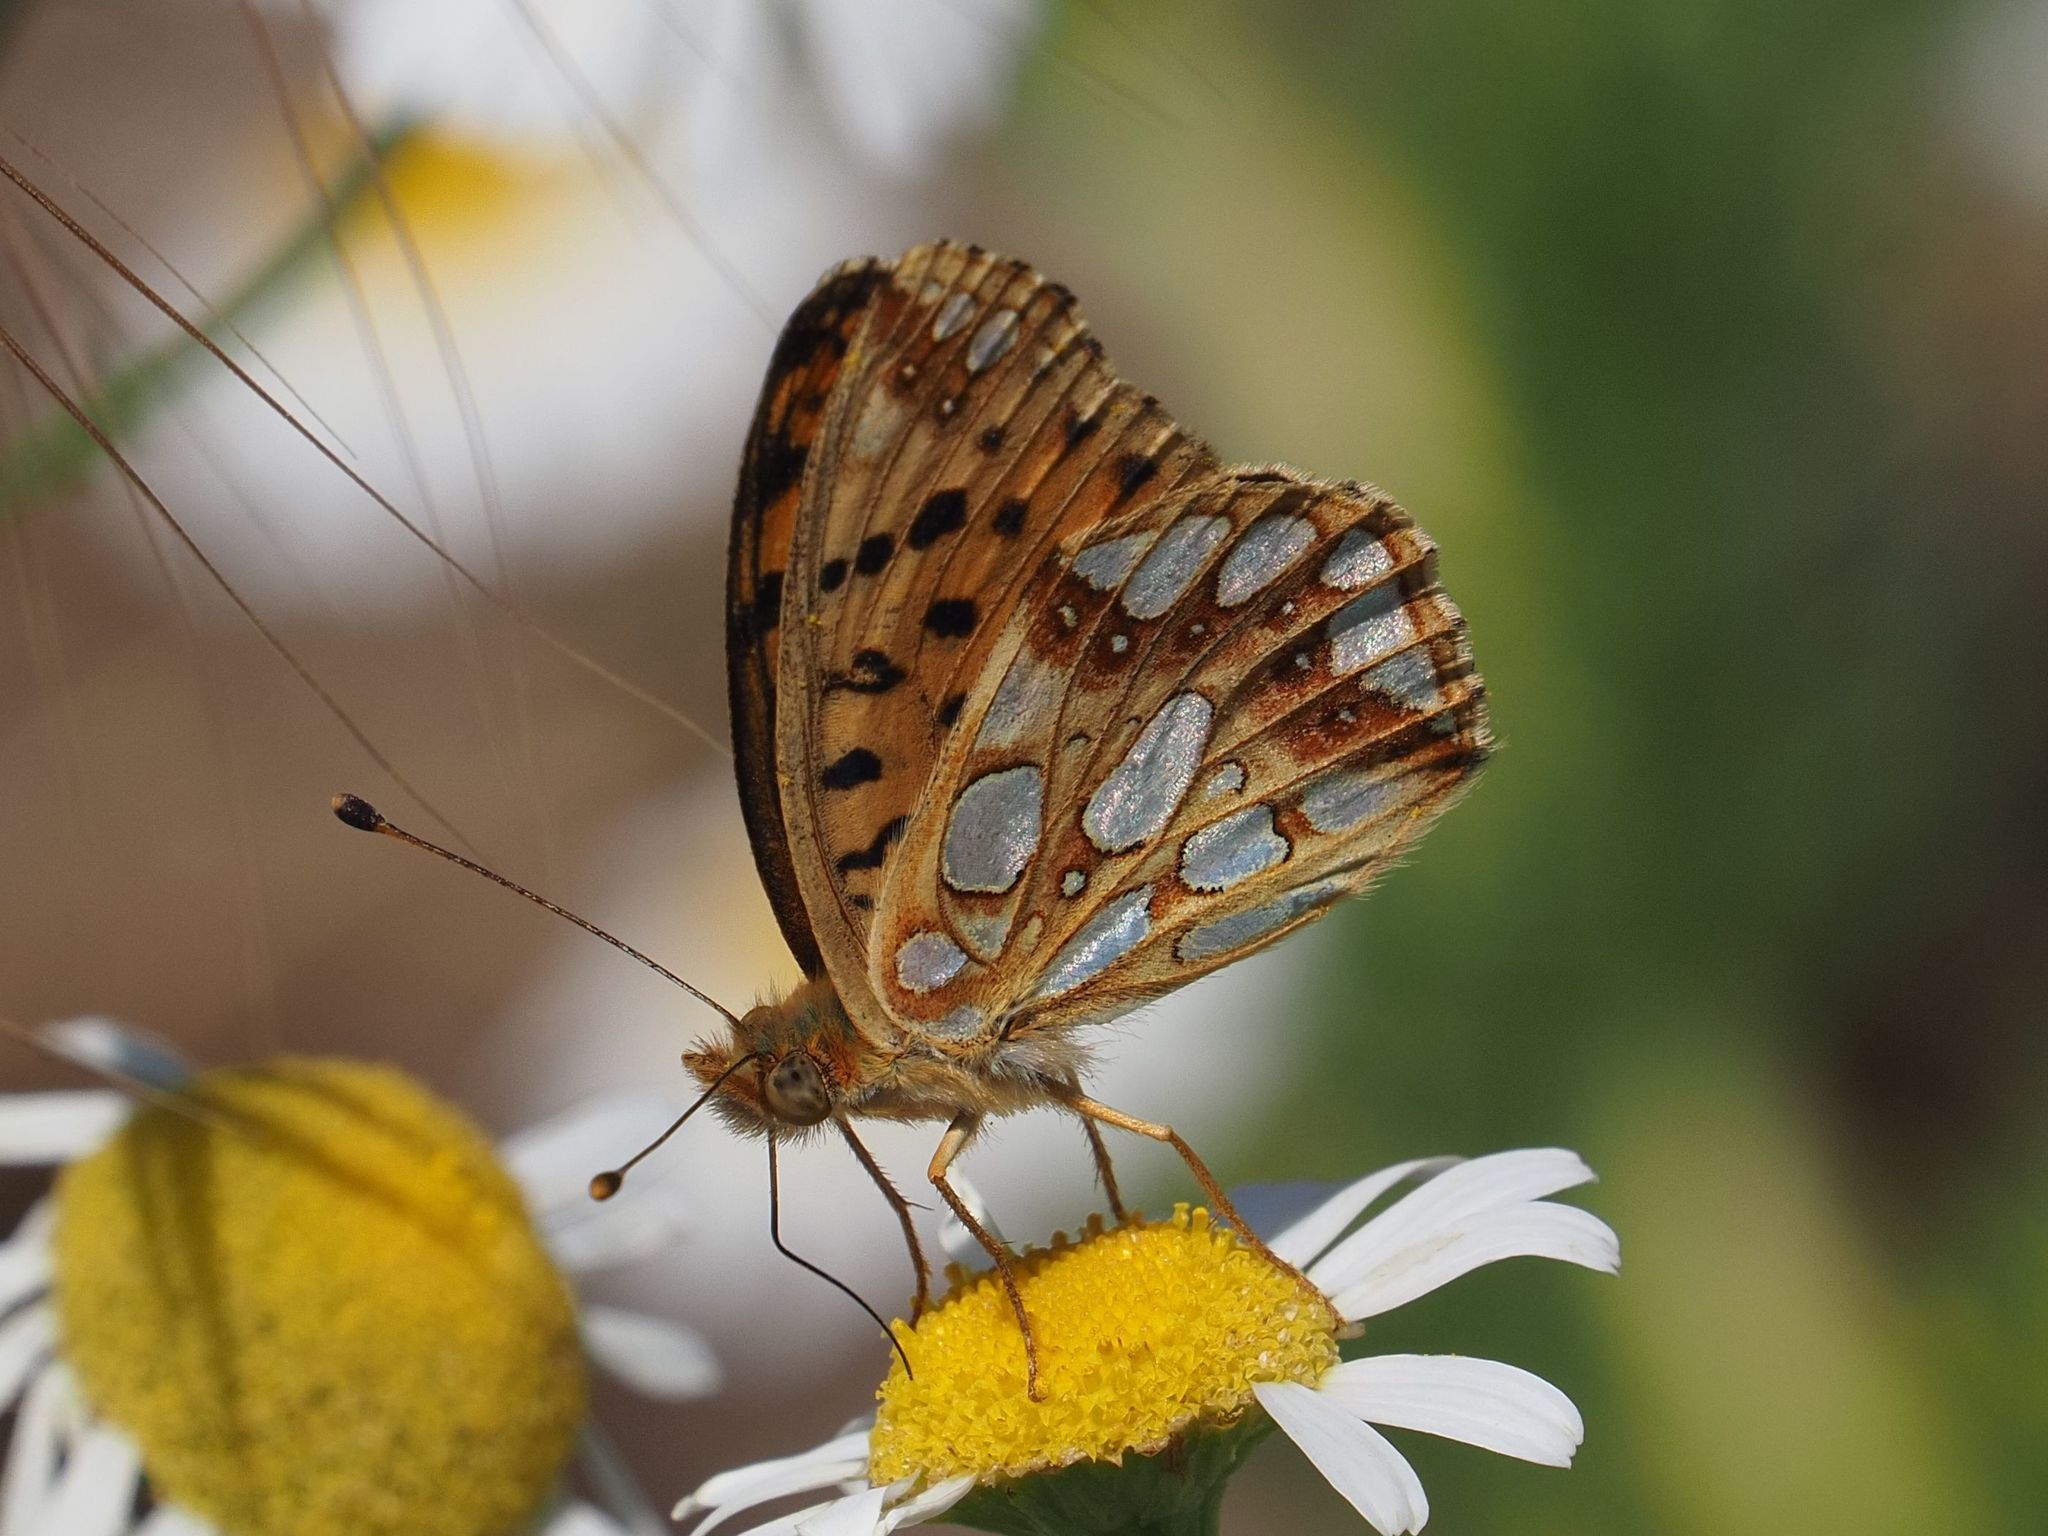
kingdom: Animalia
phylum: Arthropoda
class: Insecta
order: Lepidoptera
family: Nymphalidae
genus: Issoria
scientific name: Issoria lathonia
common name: Queen of spain fritillary
